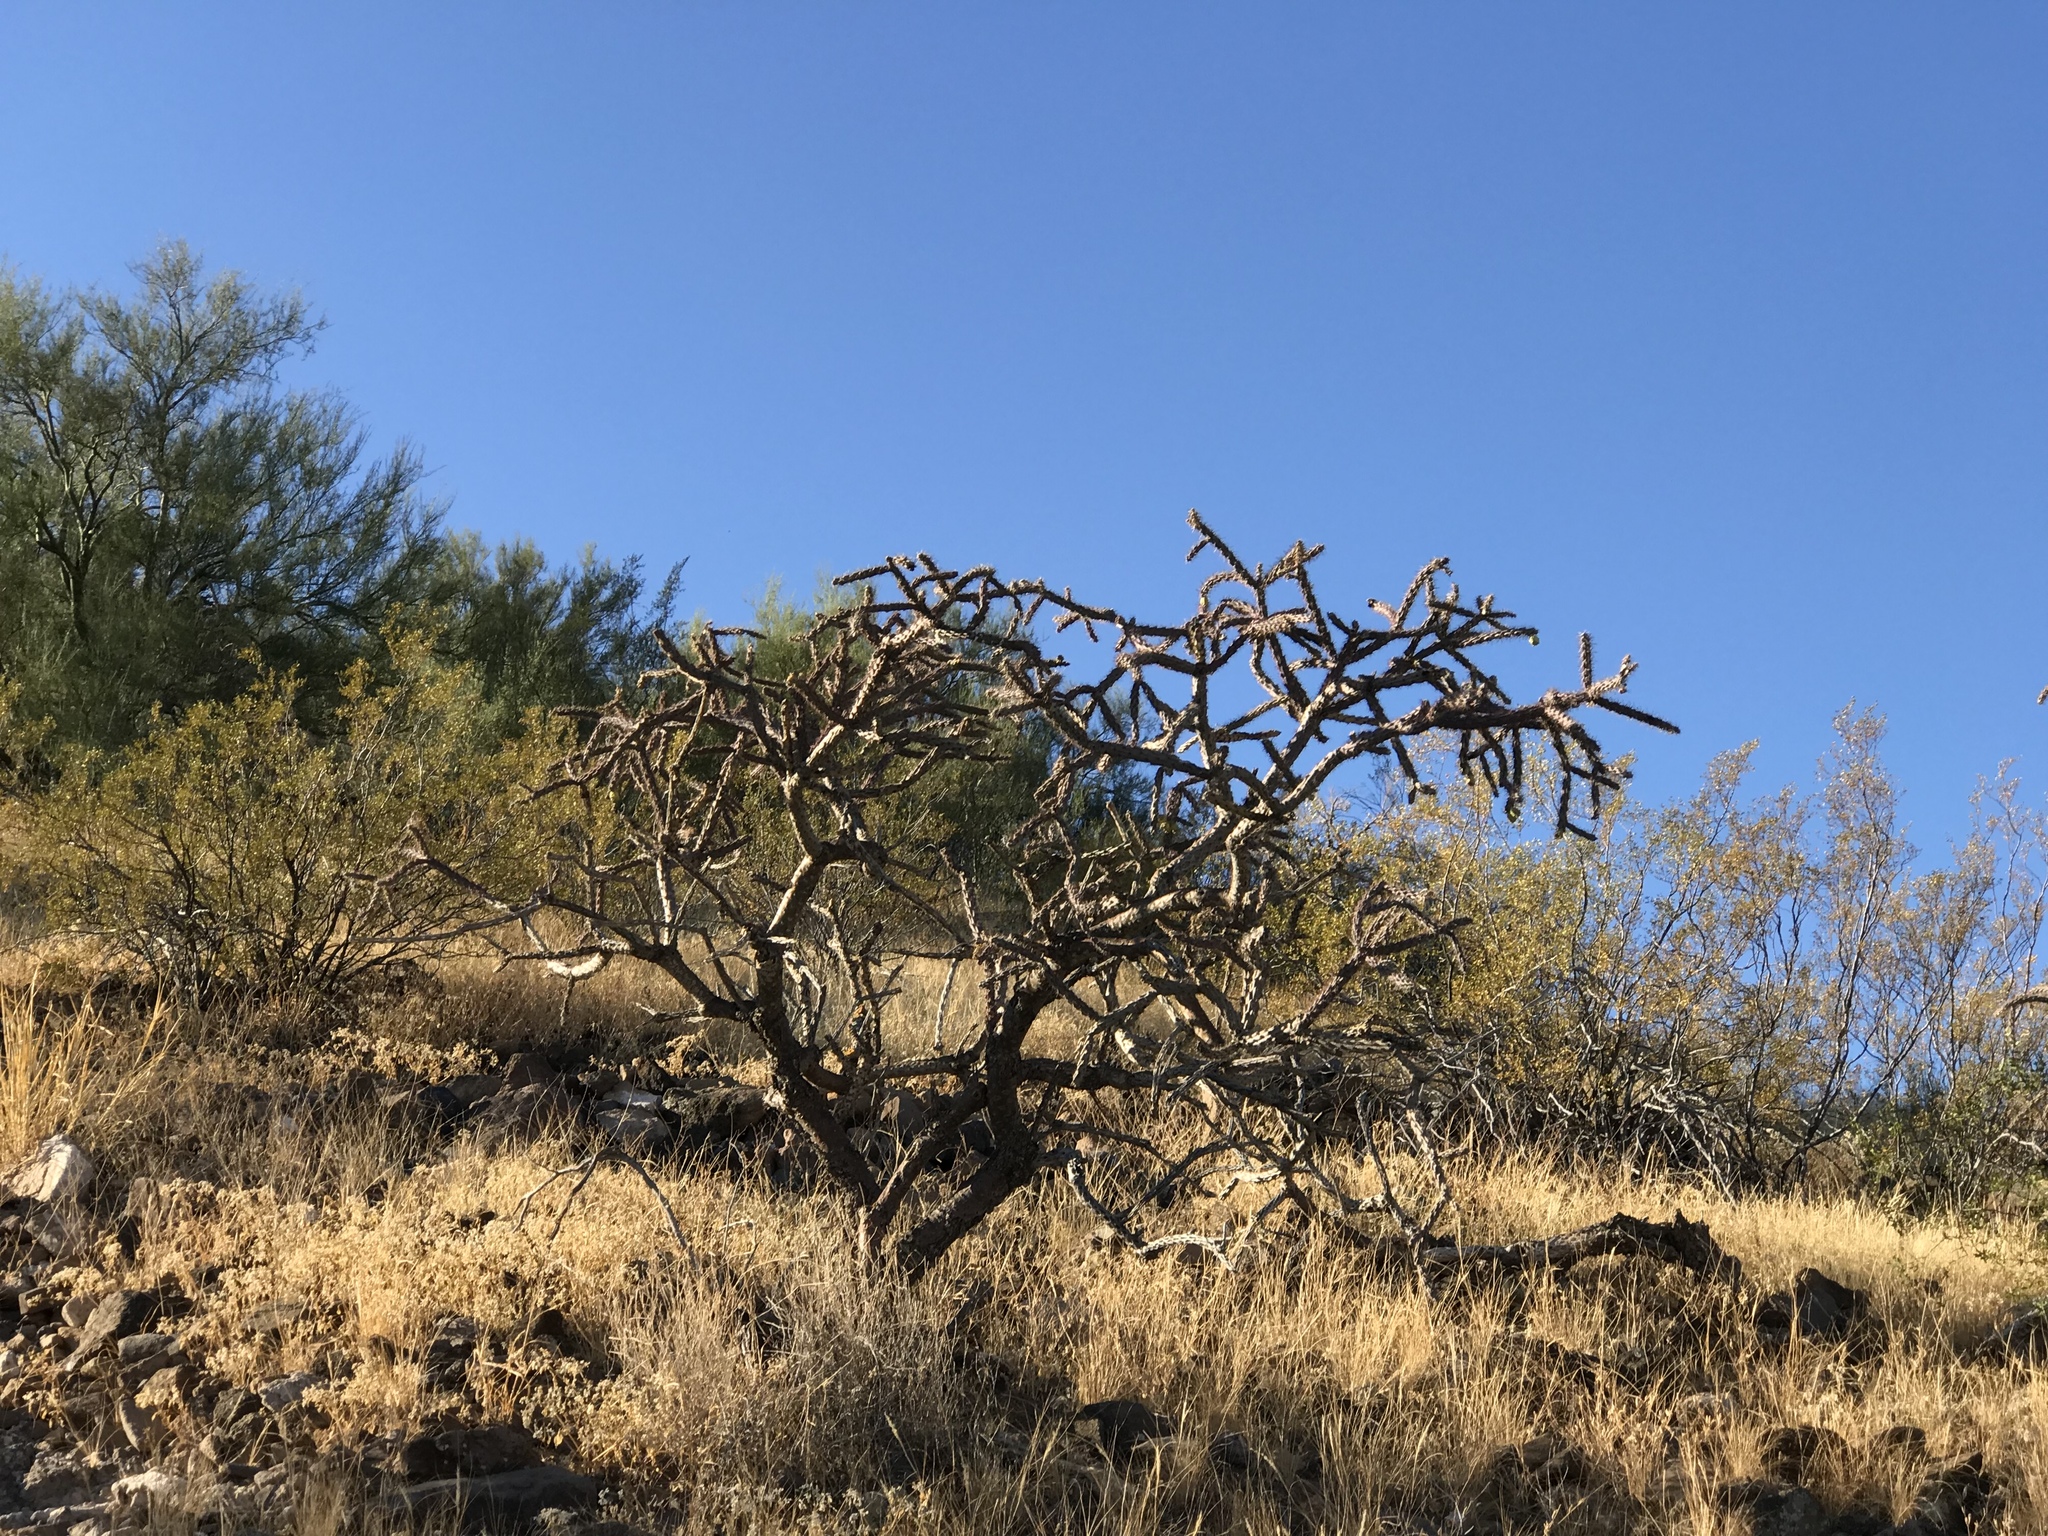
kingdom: Plantae
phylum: Tracheophyta
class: Magnoliopsida
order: Caryophyllales
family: Cactaceae
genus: Cylindropuntia
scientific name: Cylindropuntia thurberi
